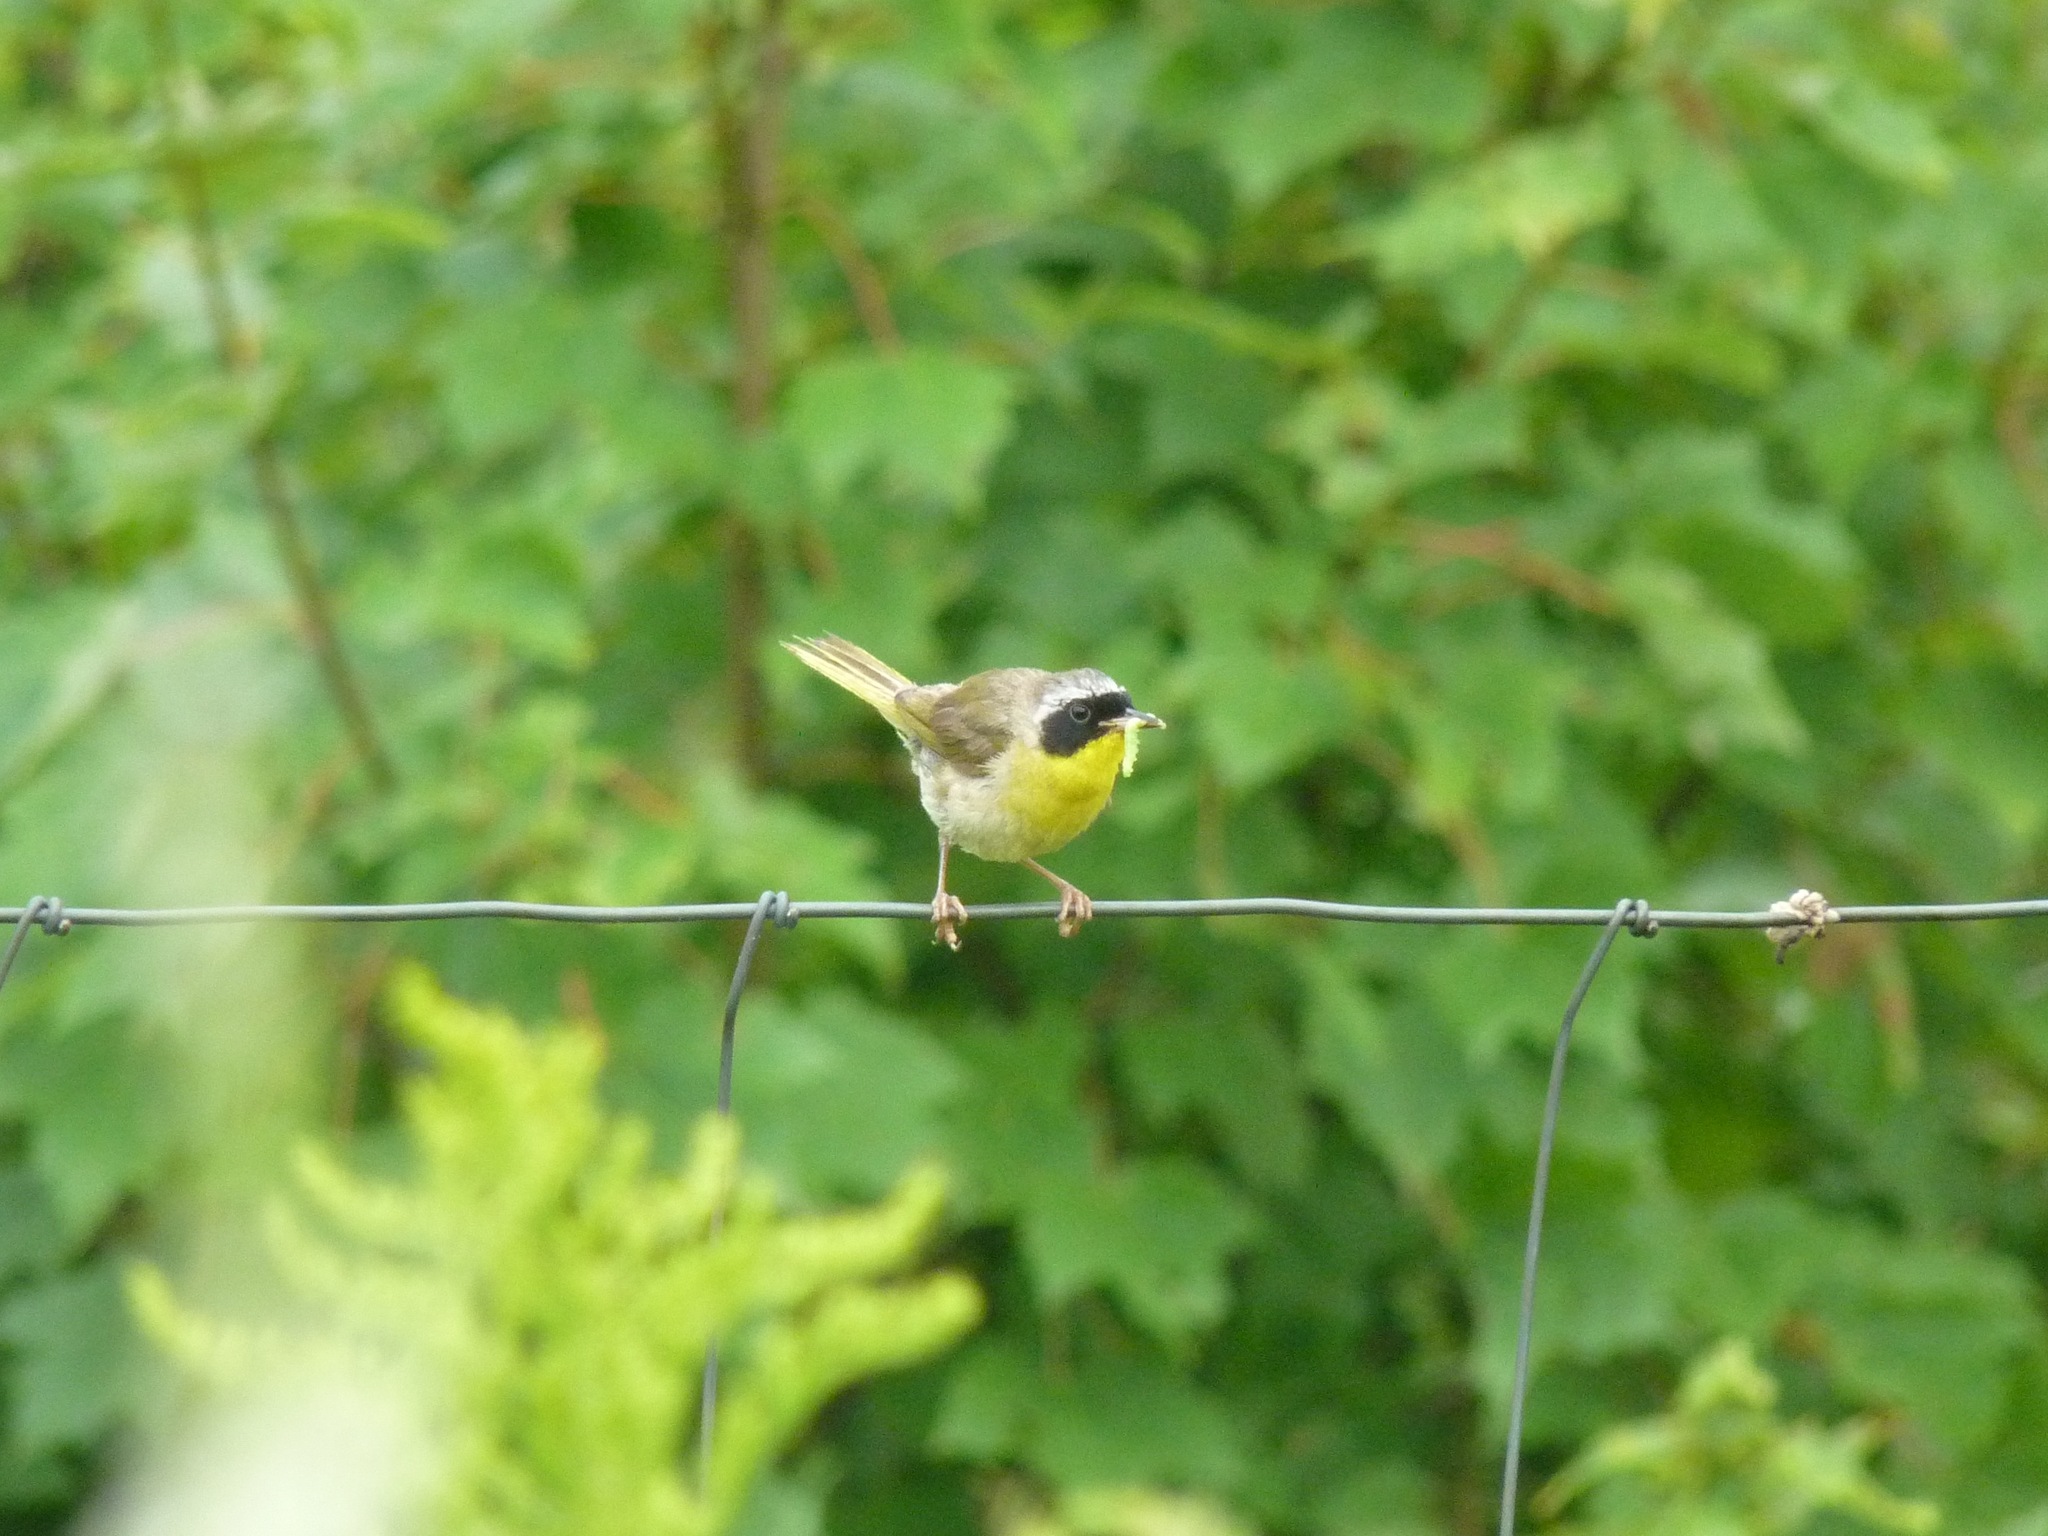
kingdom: Animalia
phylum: Chordata
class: Aves
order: Passeriformes
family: Parulidae
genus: Geothlypis
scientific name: Geothlypis trichas
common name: Common yellowthroat
